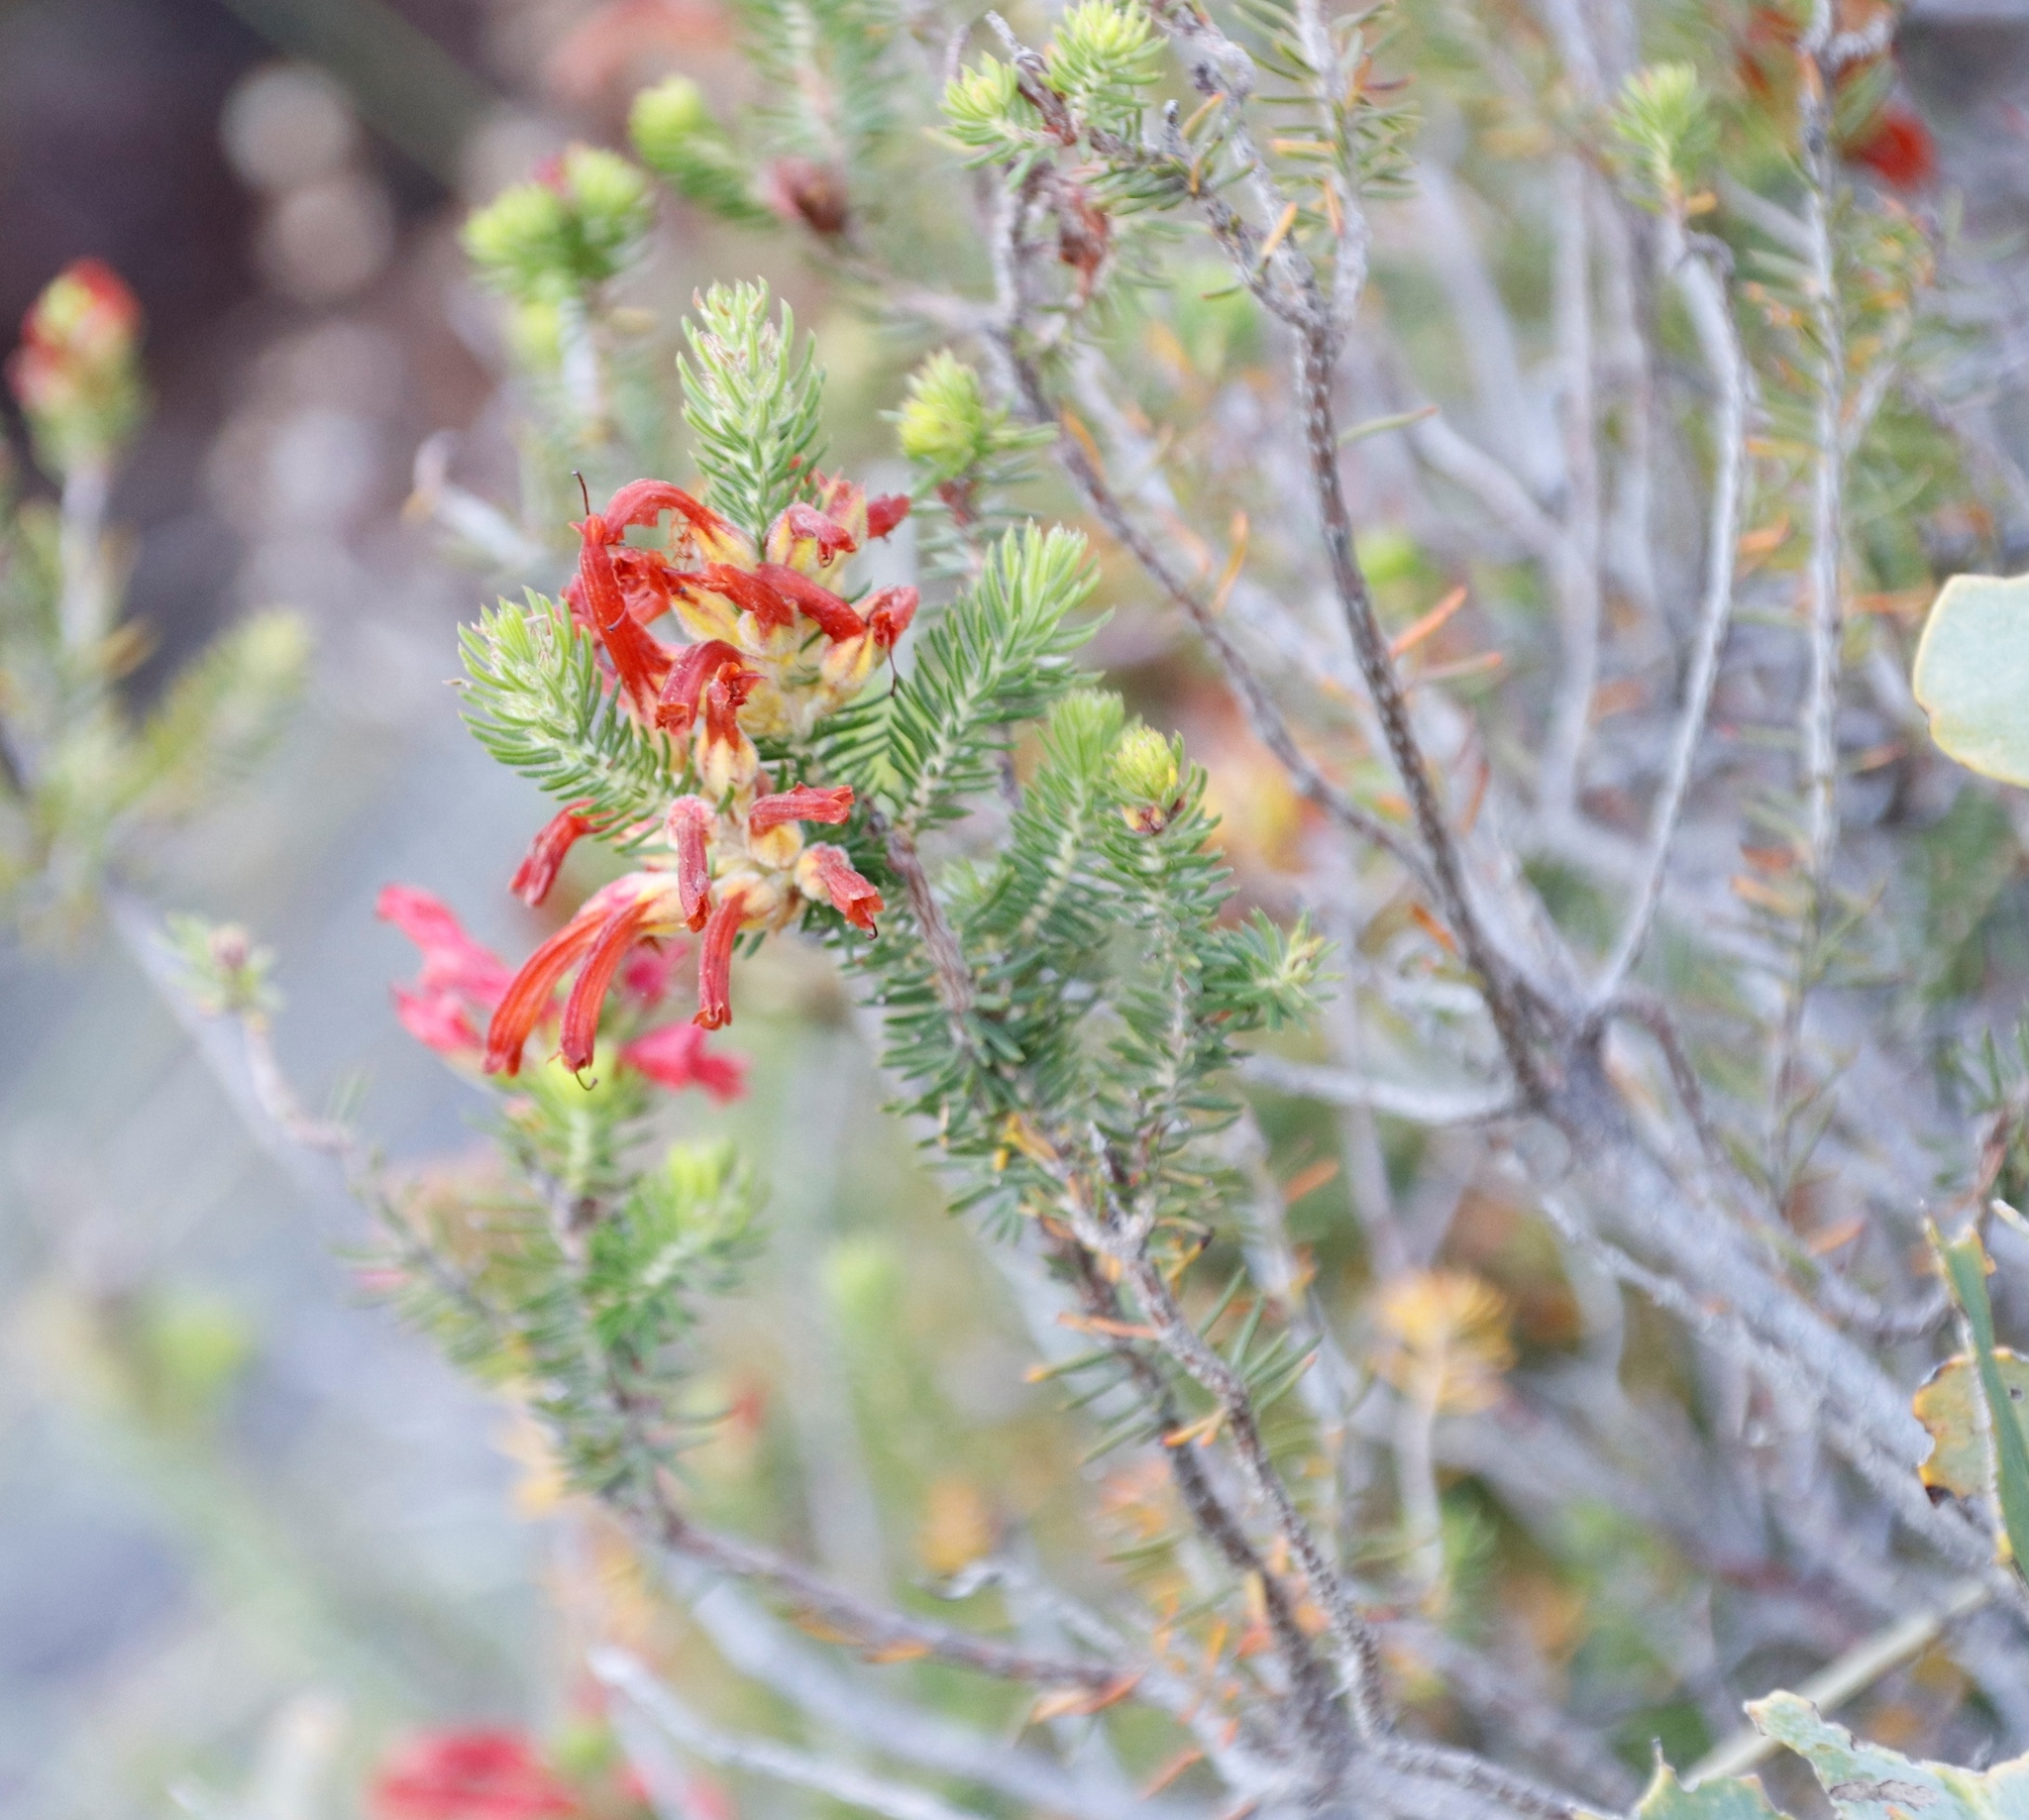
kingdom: Plantae
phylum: Tracheophyta
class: Magnoliopsida
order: Ericales
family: Ericaceae
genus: Erica
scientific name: Erica abietina
